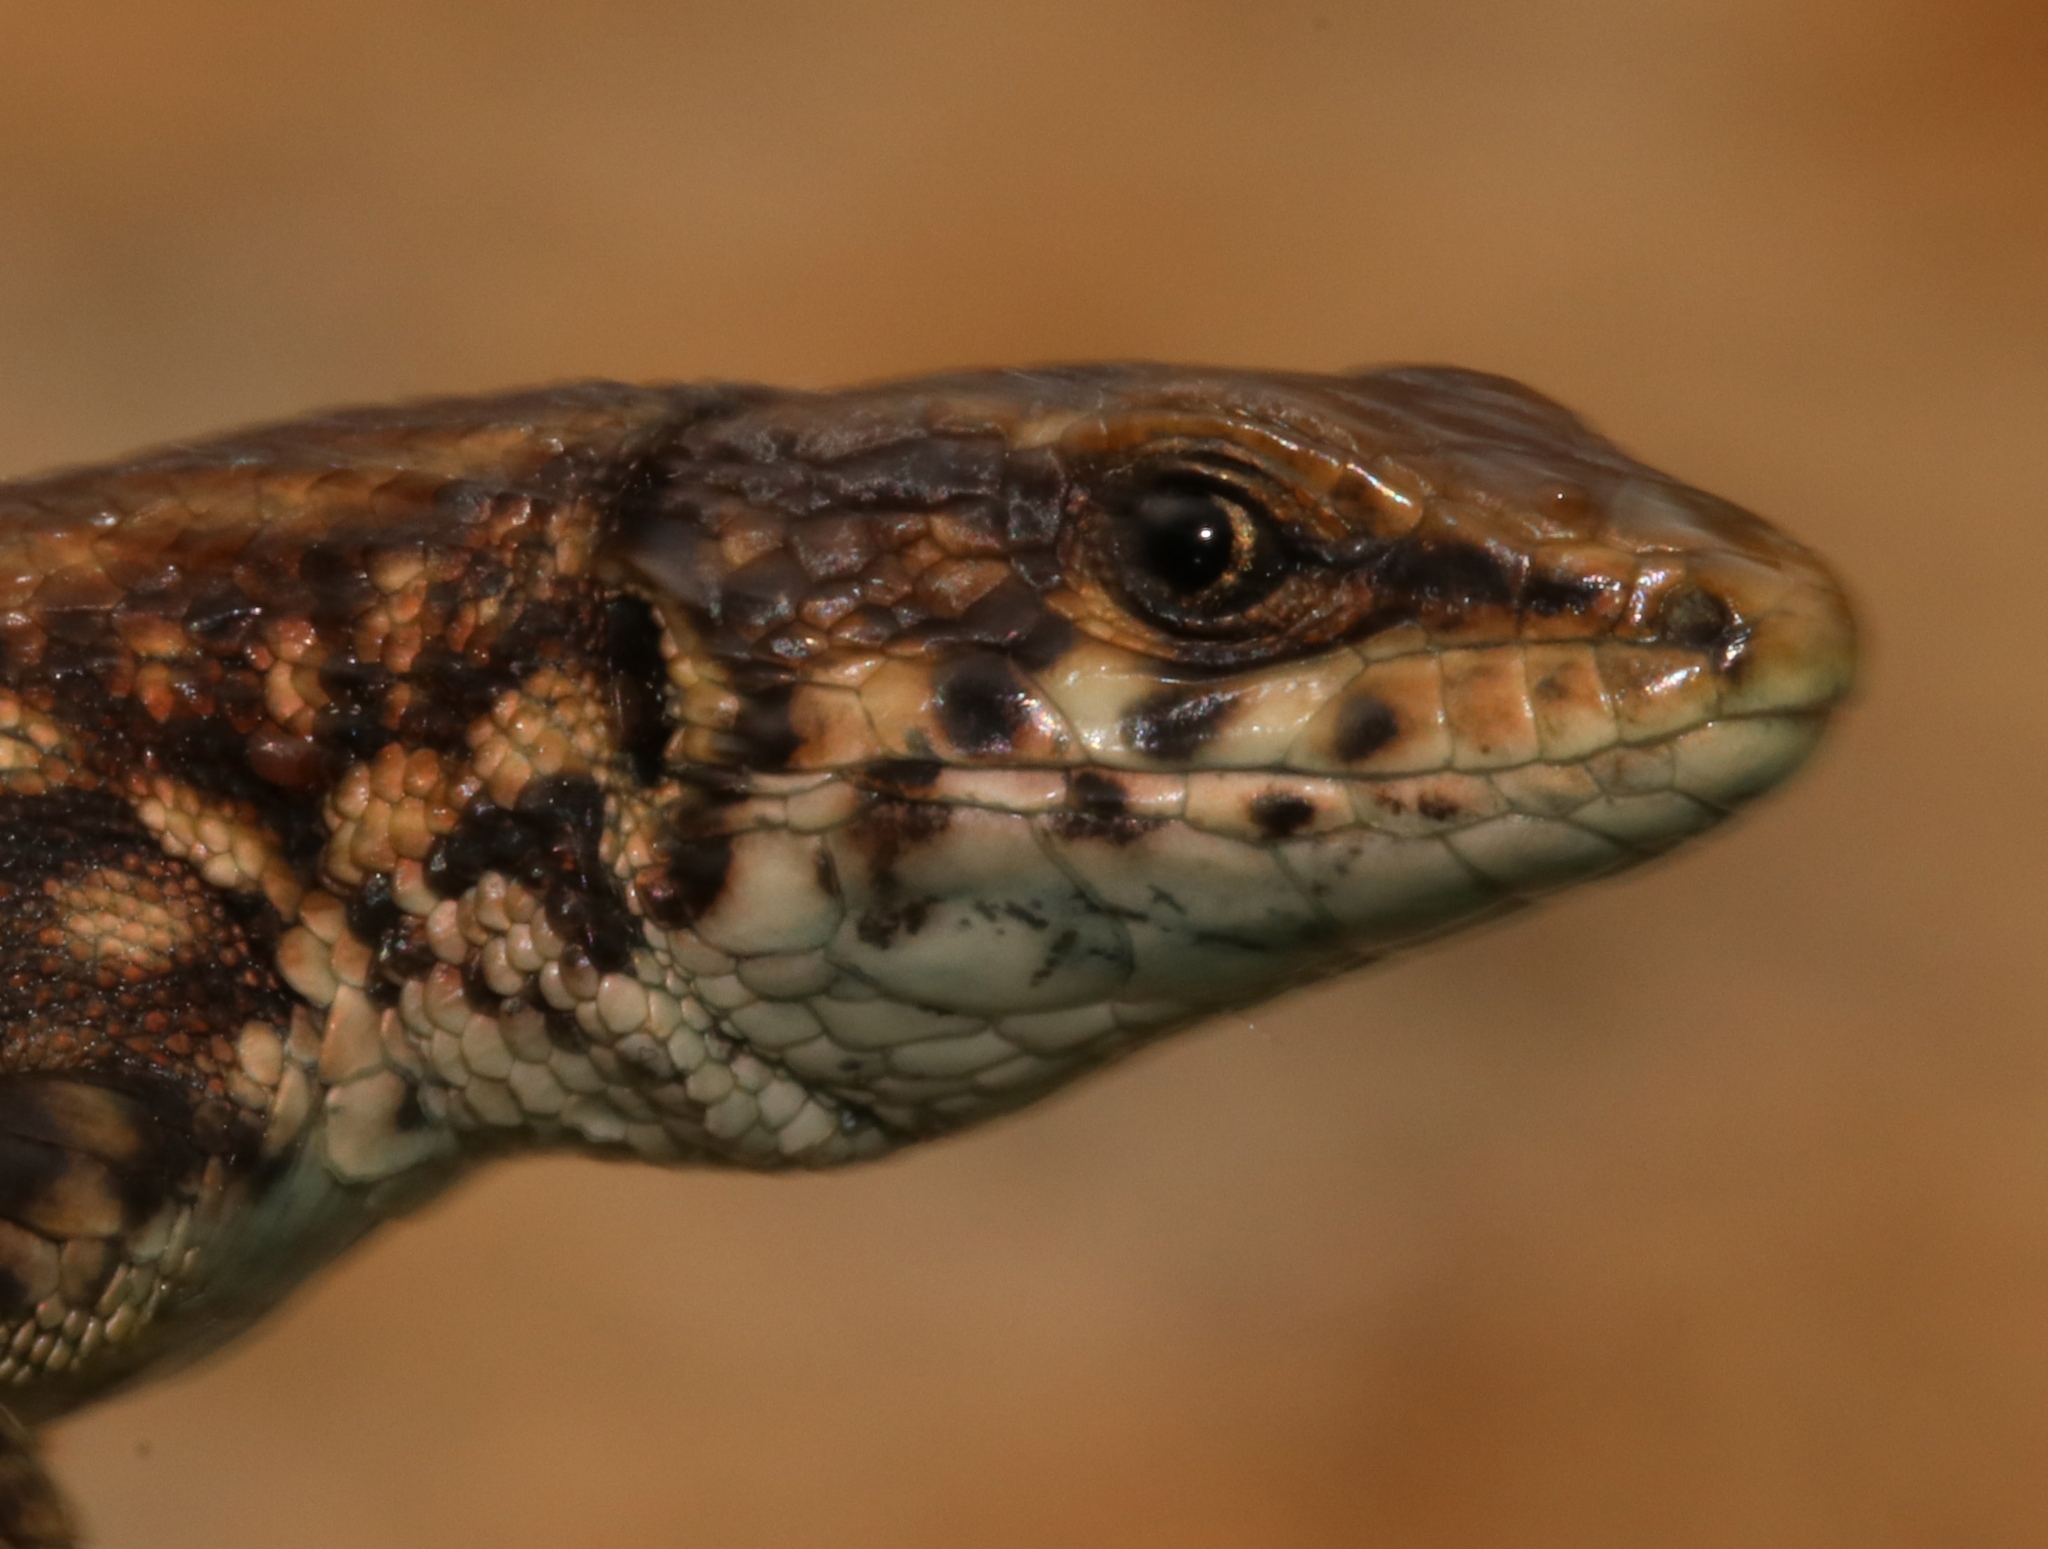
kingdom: Animalia
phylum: Chordata
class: Squamata
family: Lacertidae
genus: Algyroides
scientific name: Algyroides moreoticus
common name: Greek algyroides
